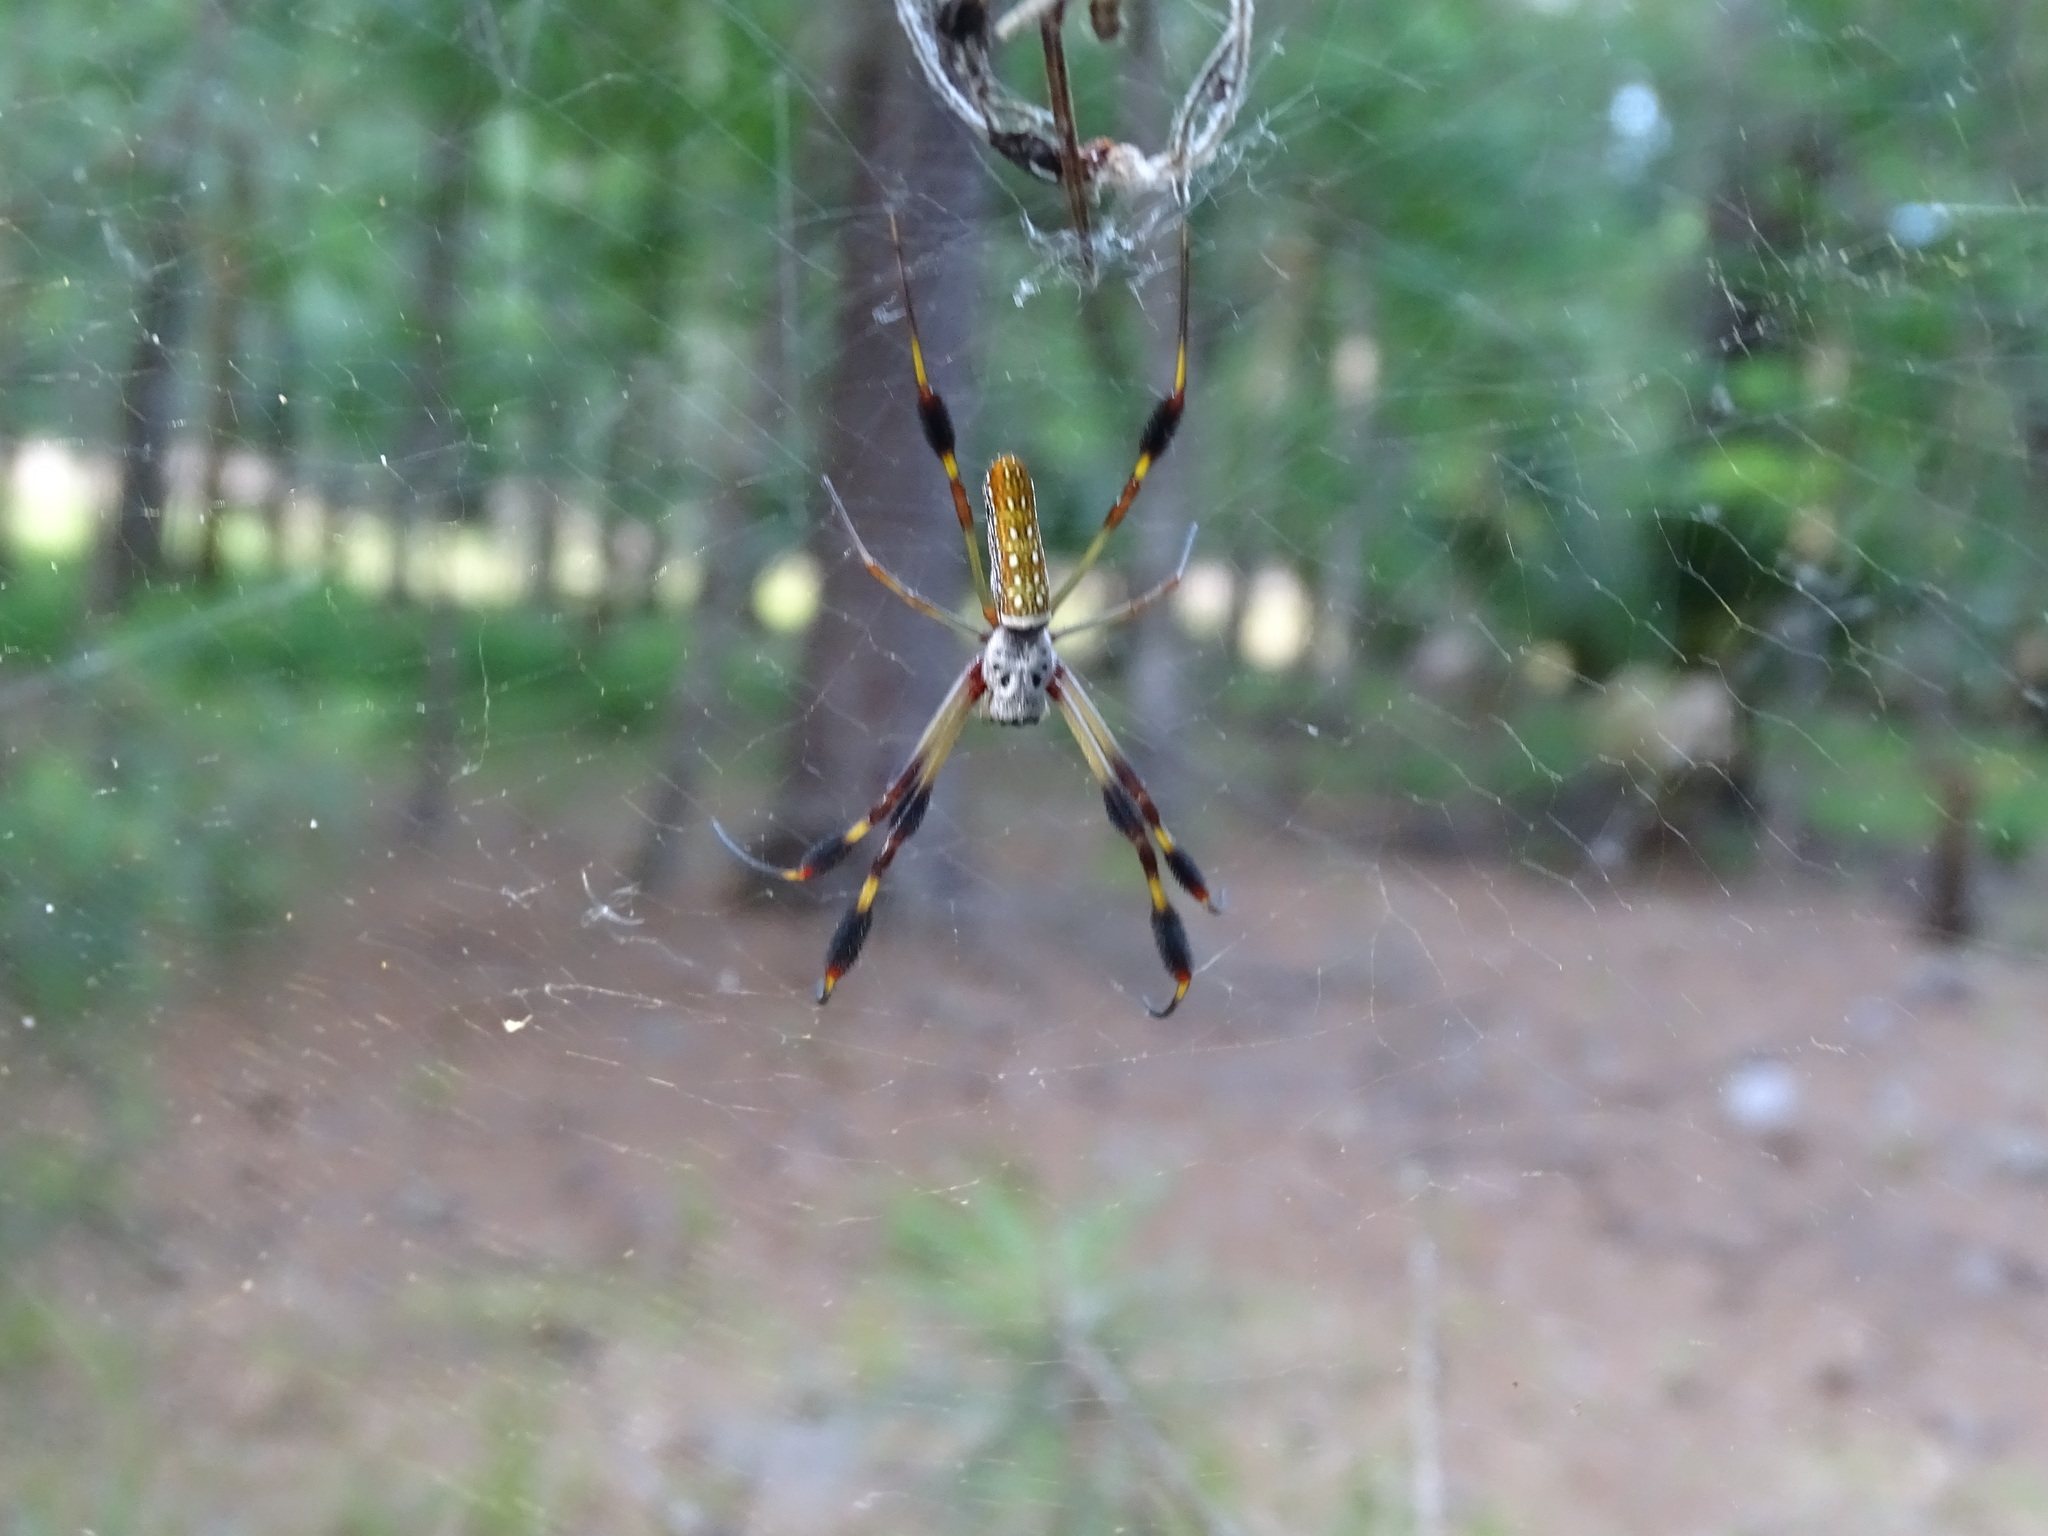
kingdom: Animalia
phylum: Arthropoda
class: Arachnida
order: Araneae
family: Araneidae
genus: Trichonephila
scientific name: Trichonephila clavipes
